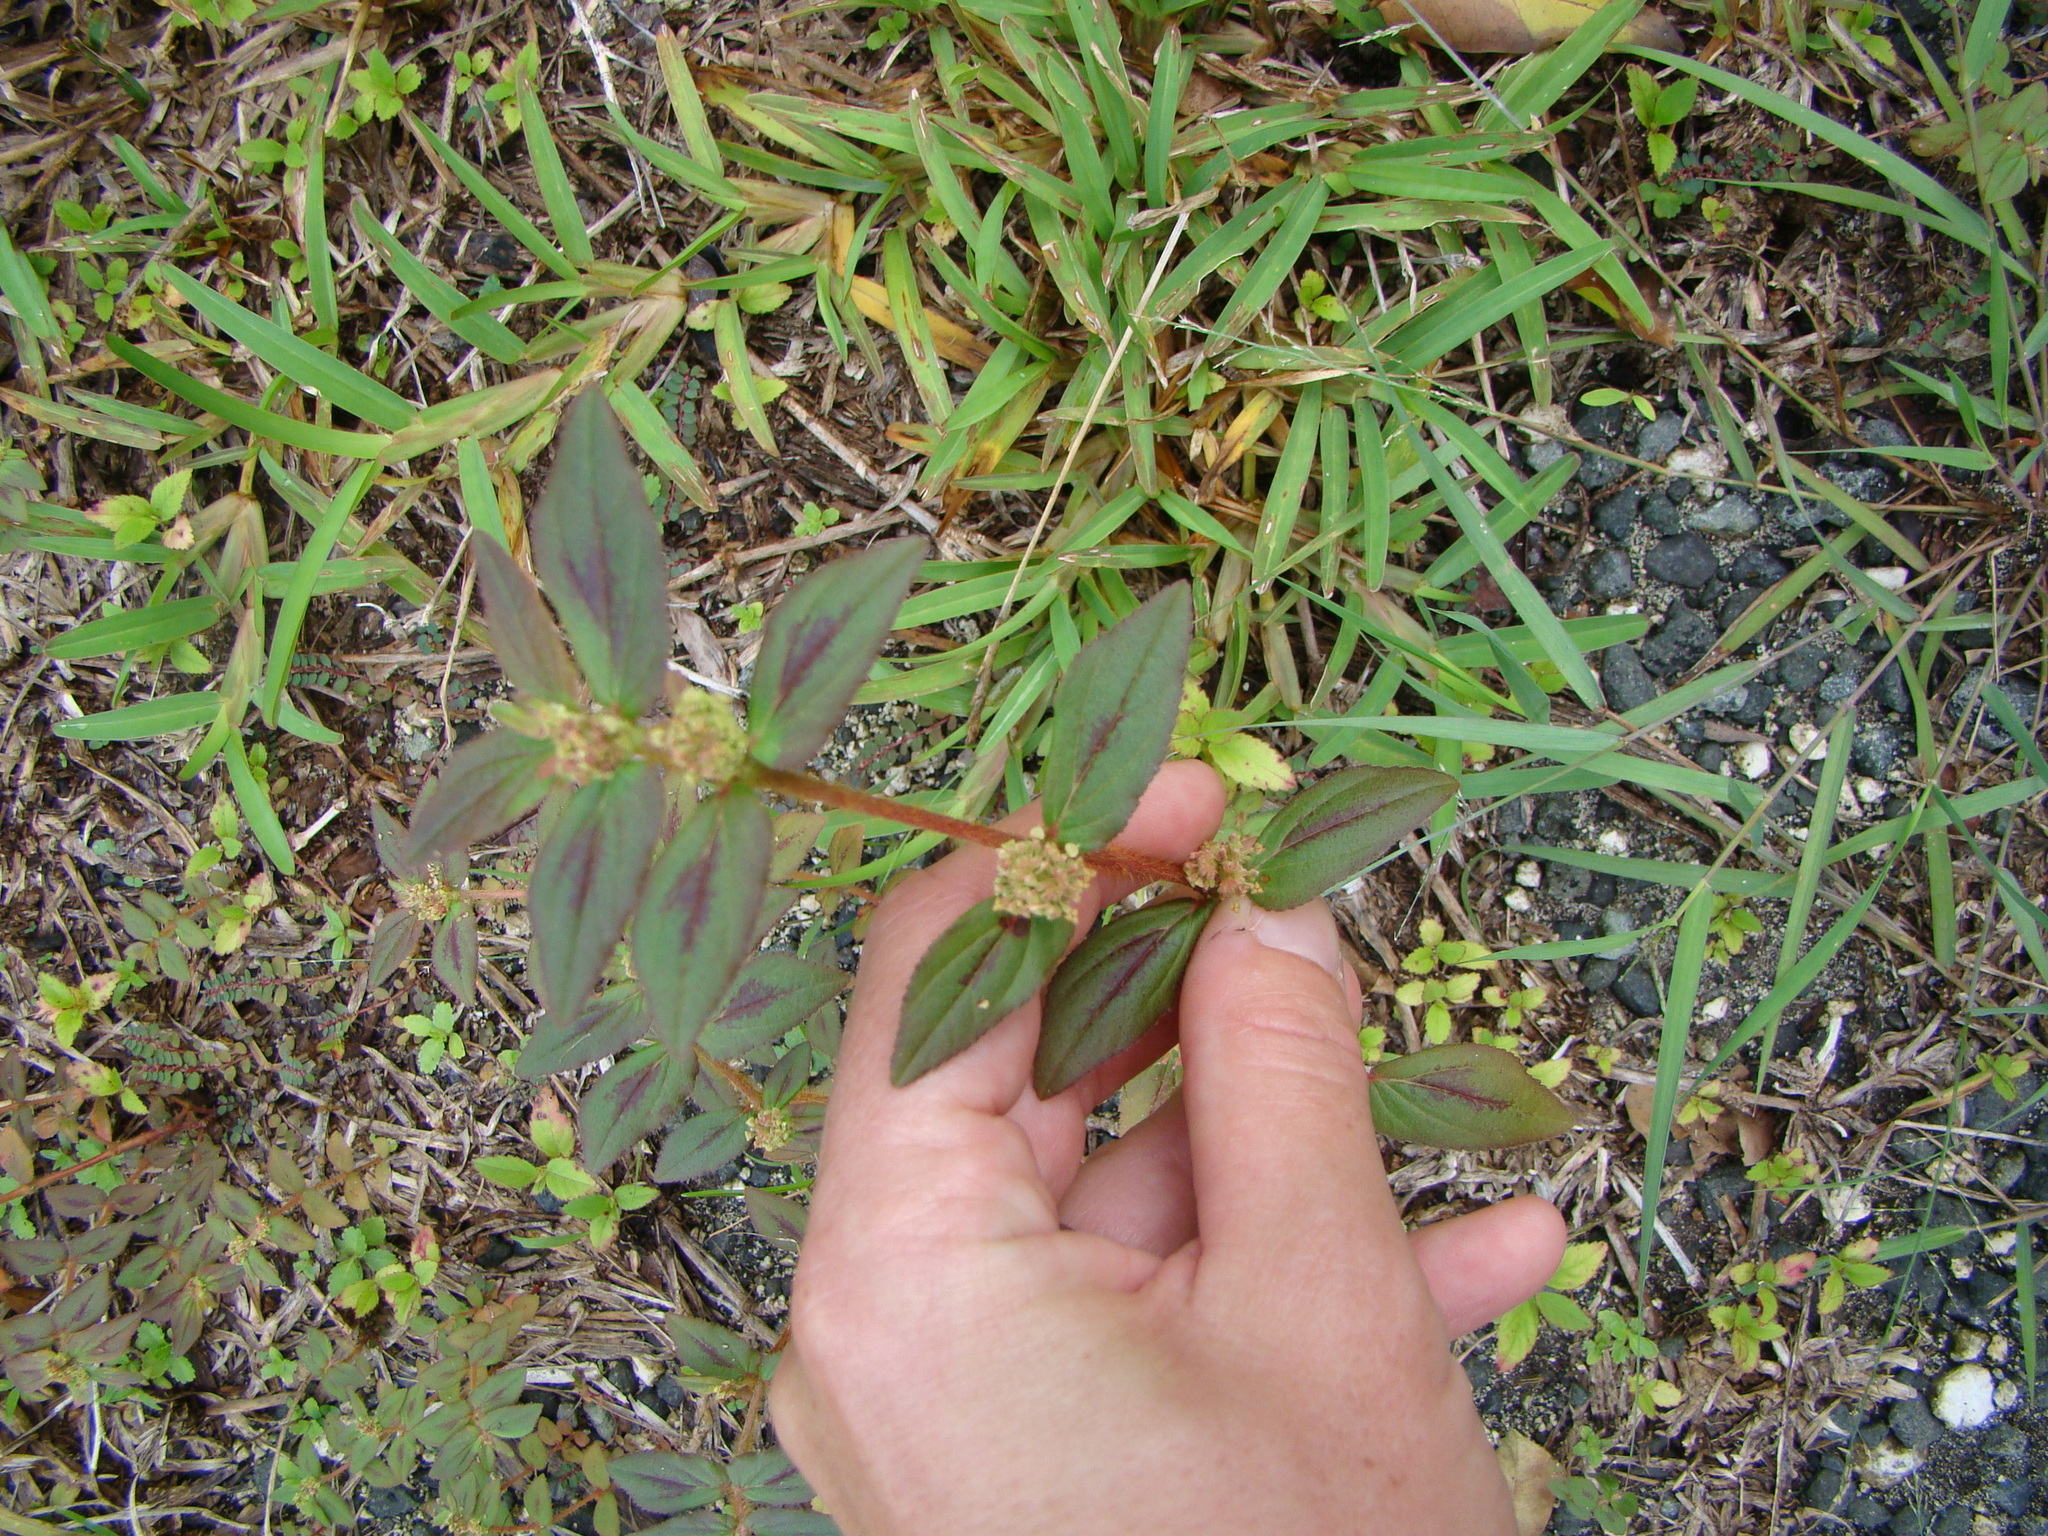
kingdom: Plantae
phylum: Tracheophyta
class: Magnoliopsida
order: Malpighiales
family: Euphorbiaceae
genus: Euphorbia
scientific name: Euphorbia hirta
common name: Pillpod sandmat
